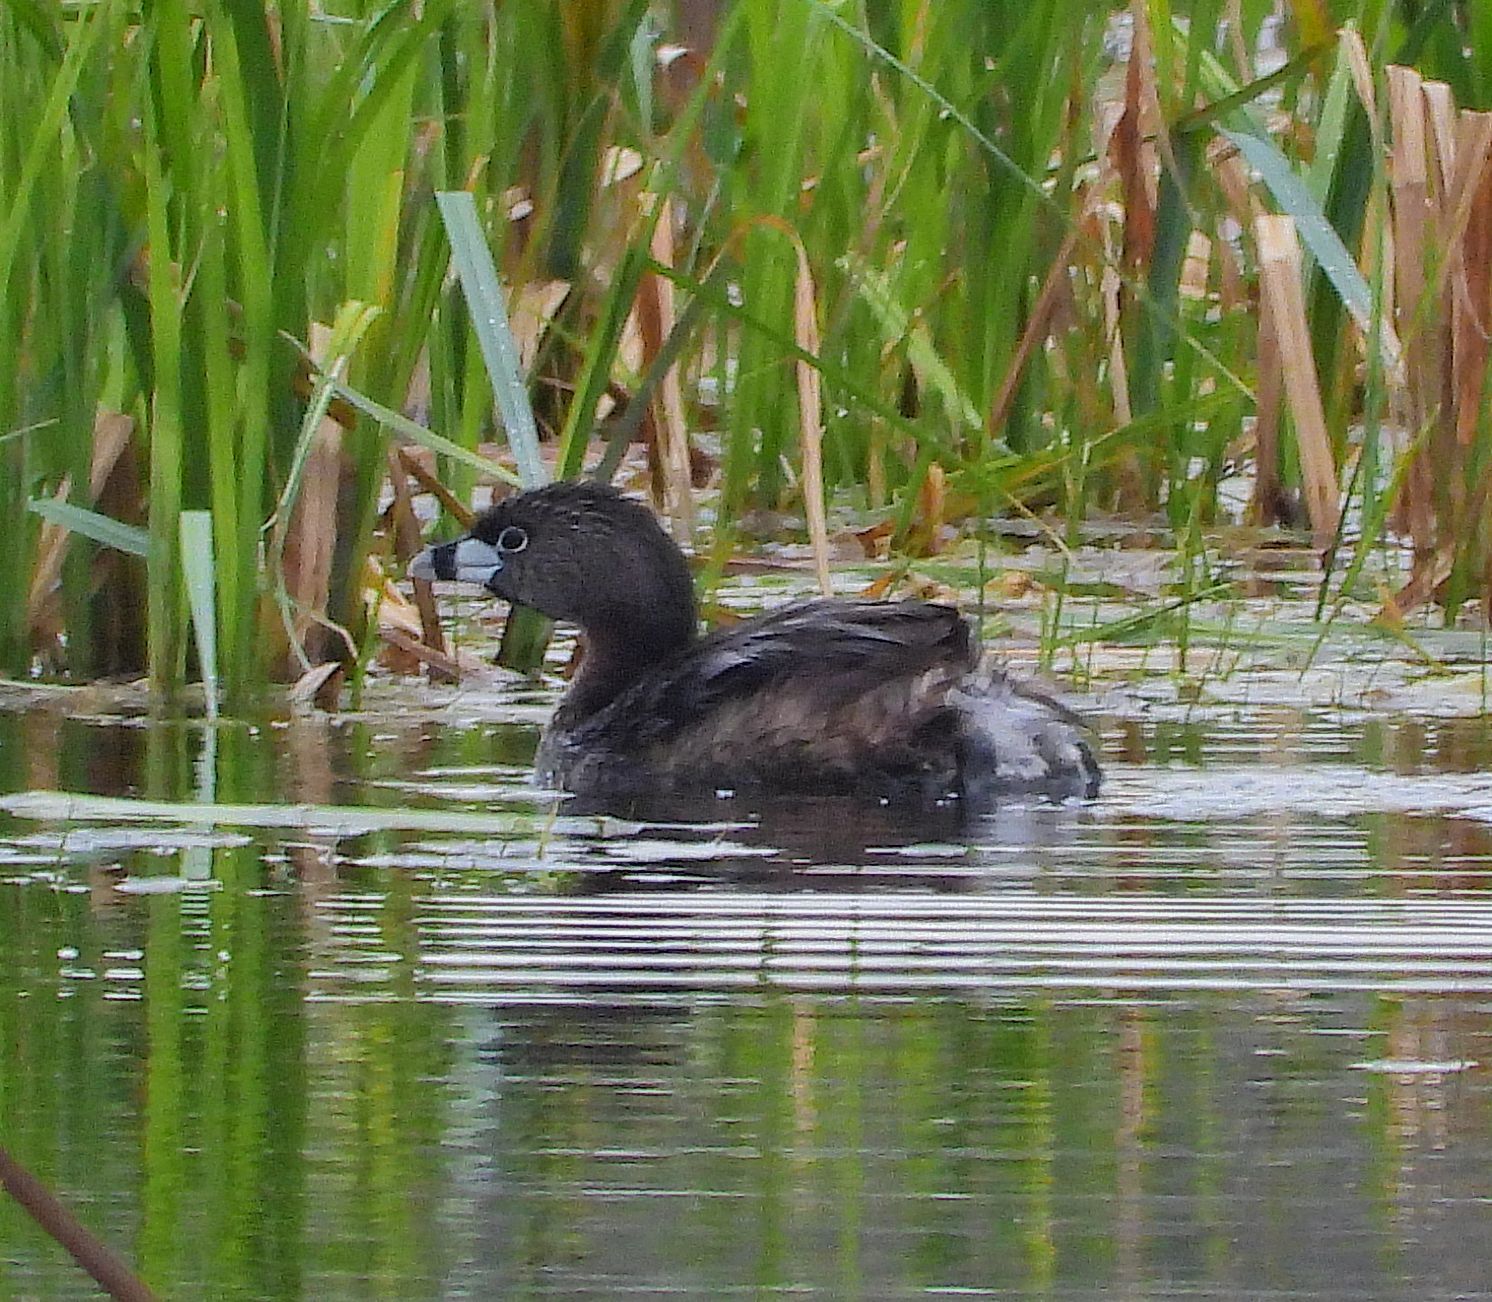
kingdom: Animalia
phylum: Chordata
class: Aves
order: Podicipediformes
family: Podicipedidae
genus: Podilymbus
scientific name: Podilymbus podiceps
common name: Pied-billed grebe
